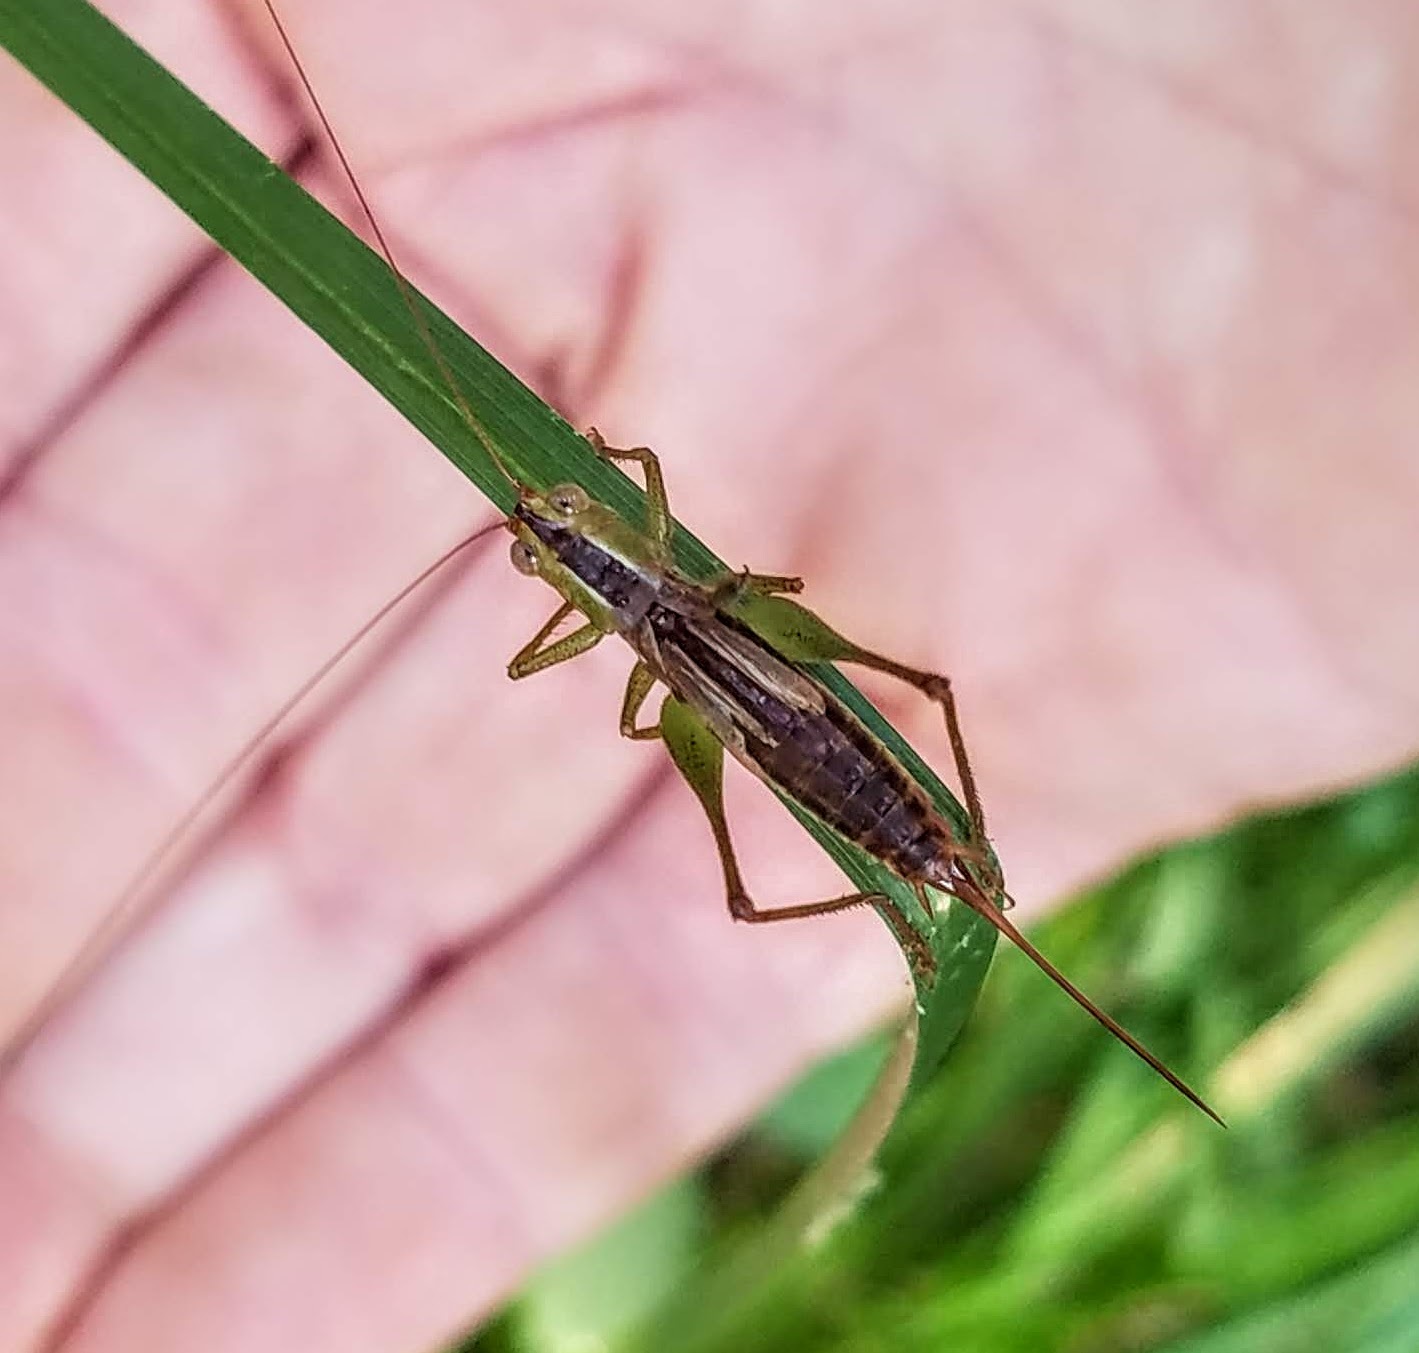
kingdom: Animalia
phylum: Arthropoda
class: Insecta
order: Orthoptera
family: Tettigoniidae
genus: Conocephalus
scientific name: Conocephalus brevipennis
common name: Short-winged meadow katydid
